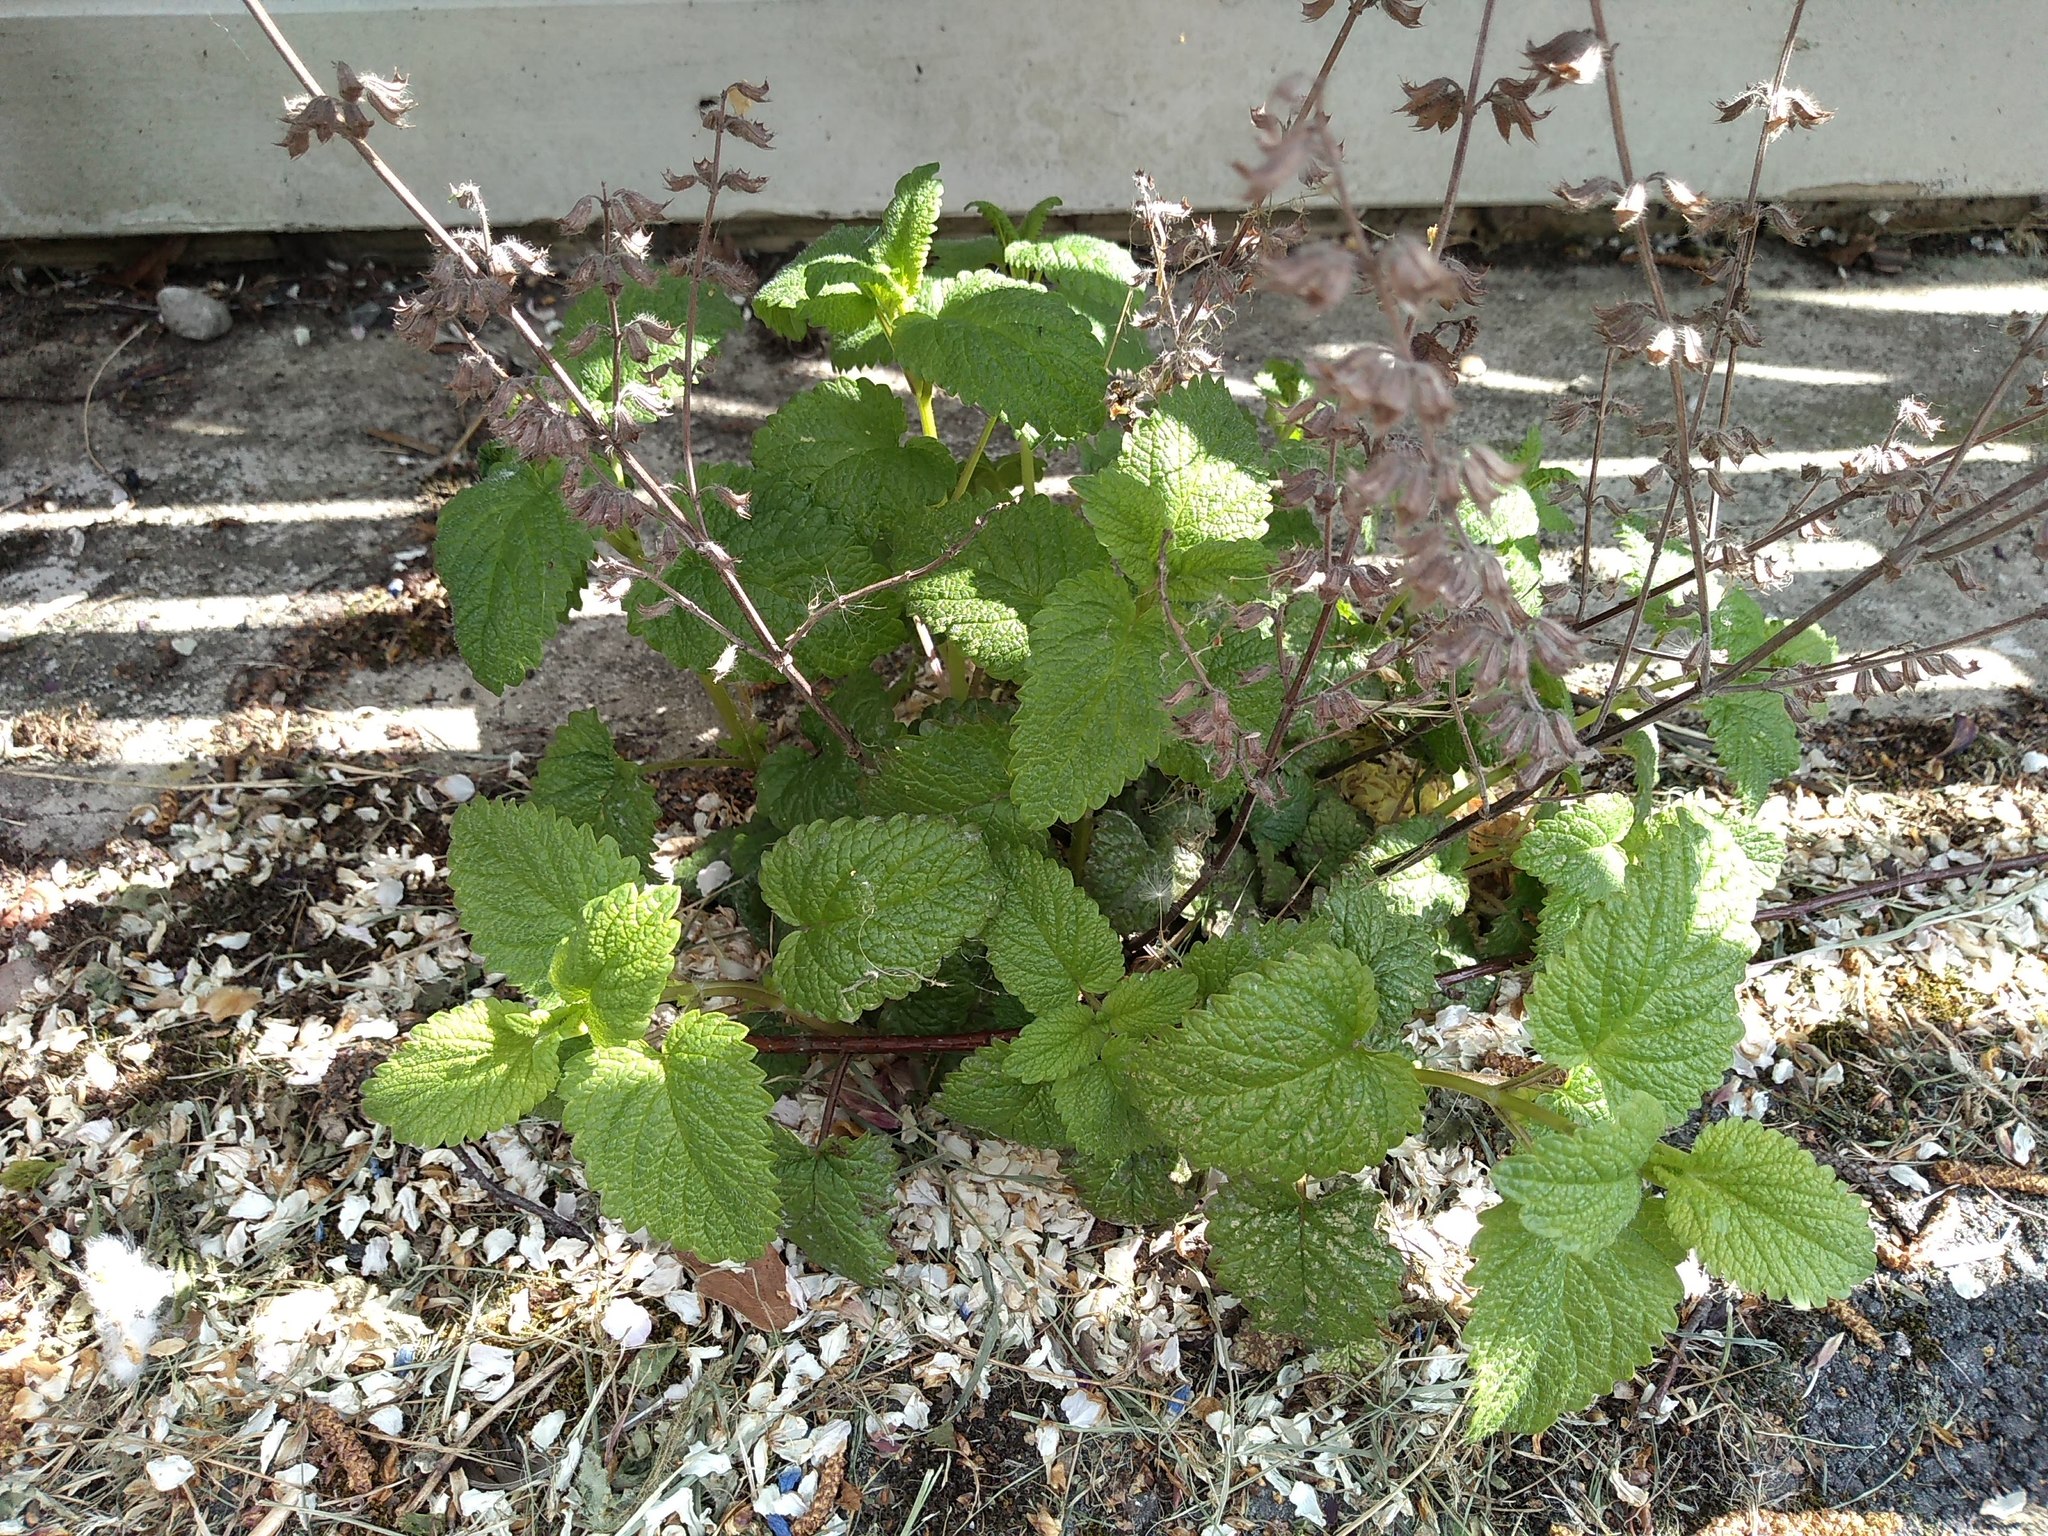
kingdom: Plantae
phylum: Tracheophyta
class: Magnoliopsida
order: Lamiales
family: Lamiaceae
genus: Melissa
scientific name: Melissa officinalis
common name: Balm
